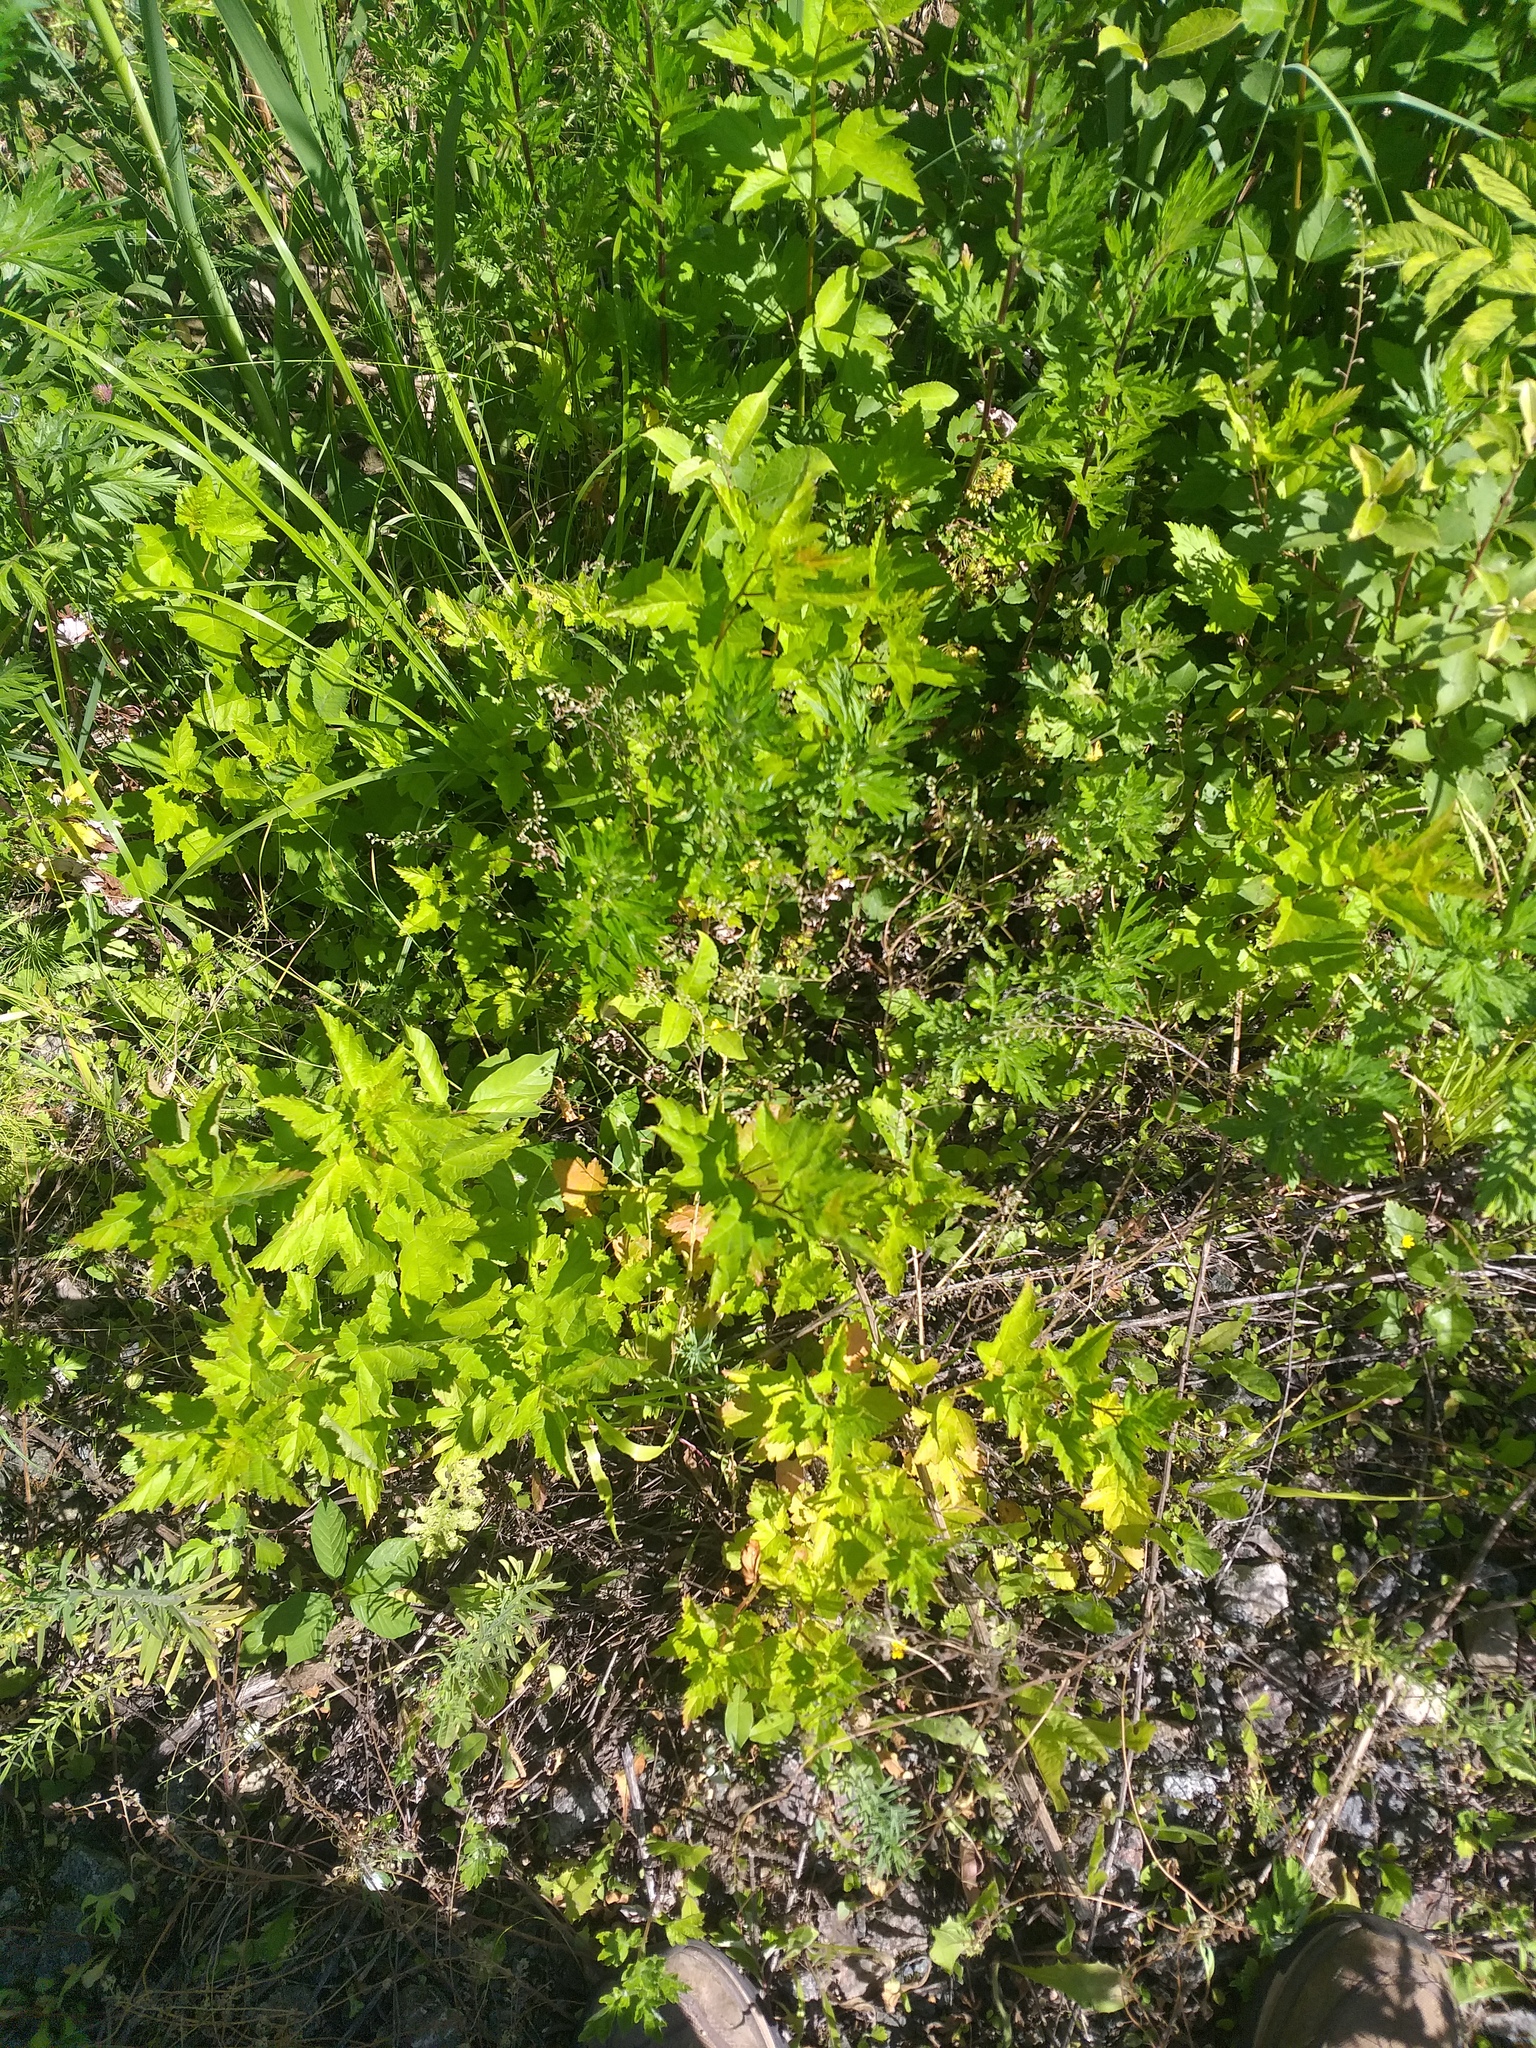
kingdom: Plantae
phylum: Tracheophyta
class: Magnoliopsida
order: Rosales
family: Rosaceae
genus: Physocarpus
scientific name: Physocarpus opulifolius
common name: Ninebark
